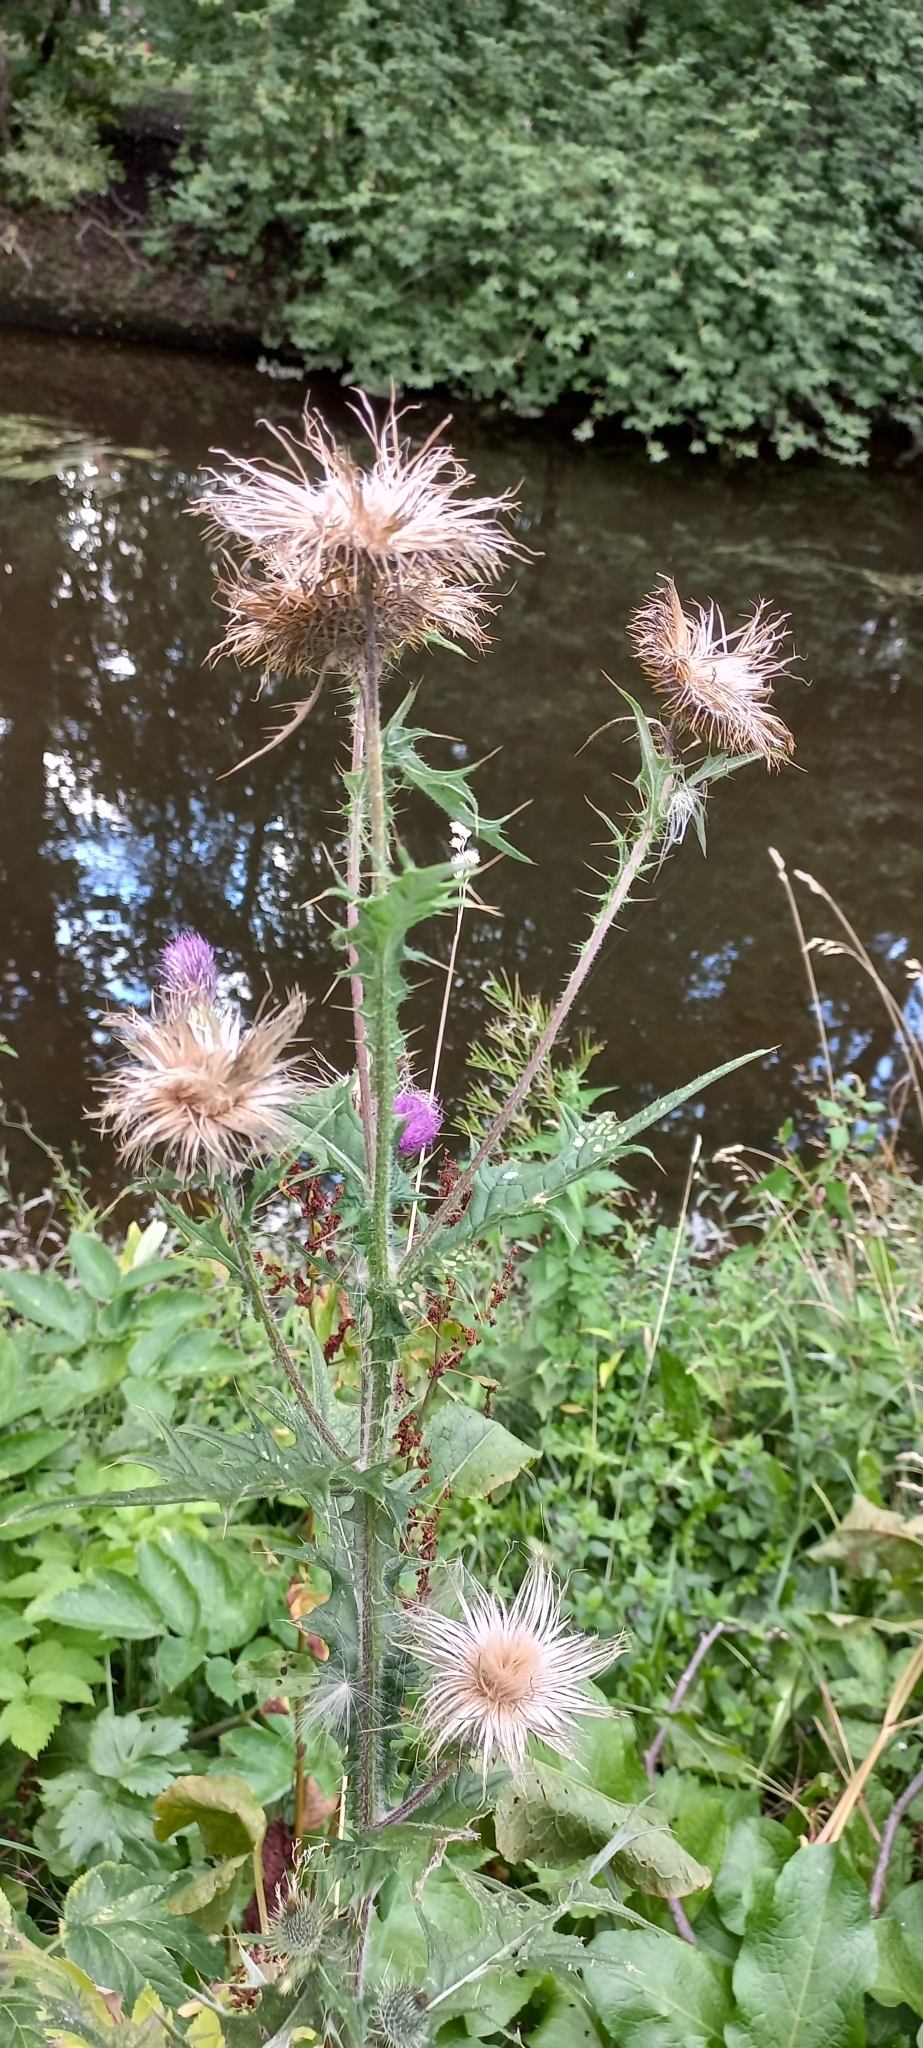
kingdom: Plantae
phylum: Tracheophyta
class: Magnoliopsida
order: Asterales
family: Asteraceae
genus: Cirsium
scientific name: Cirsium vulgare
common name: Bull thistle
